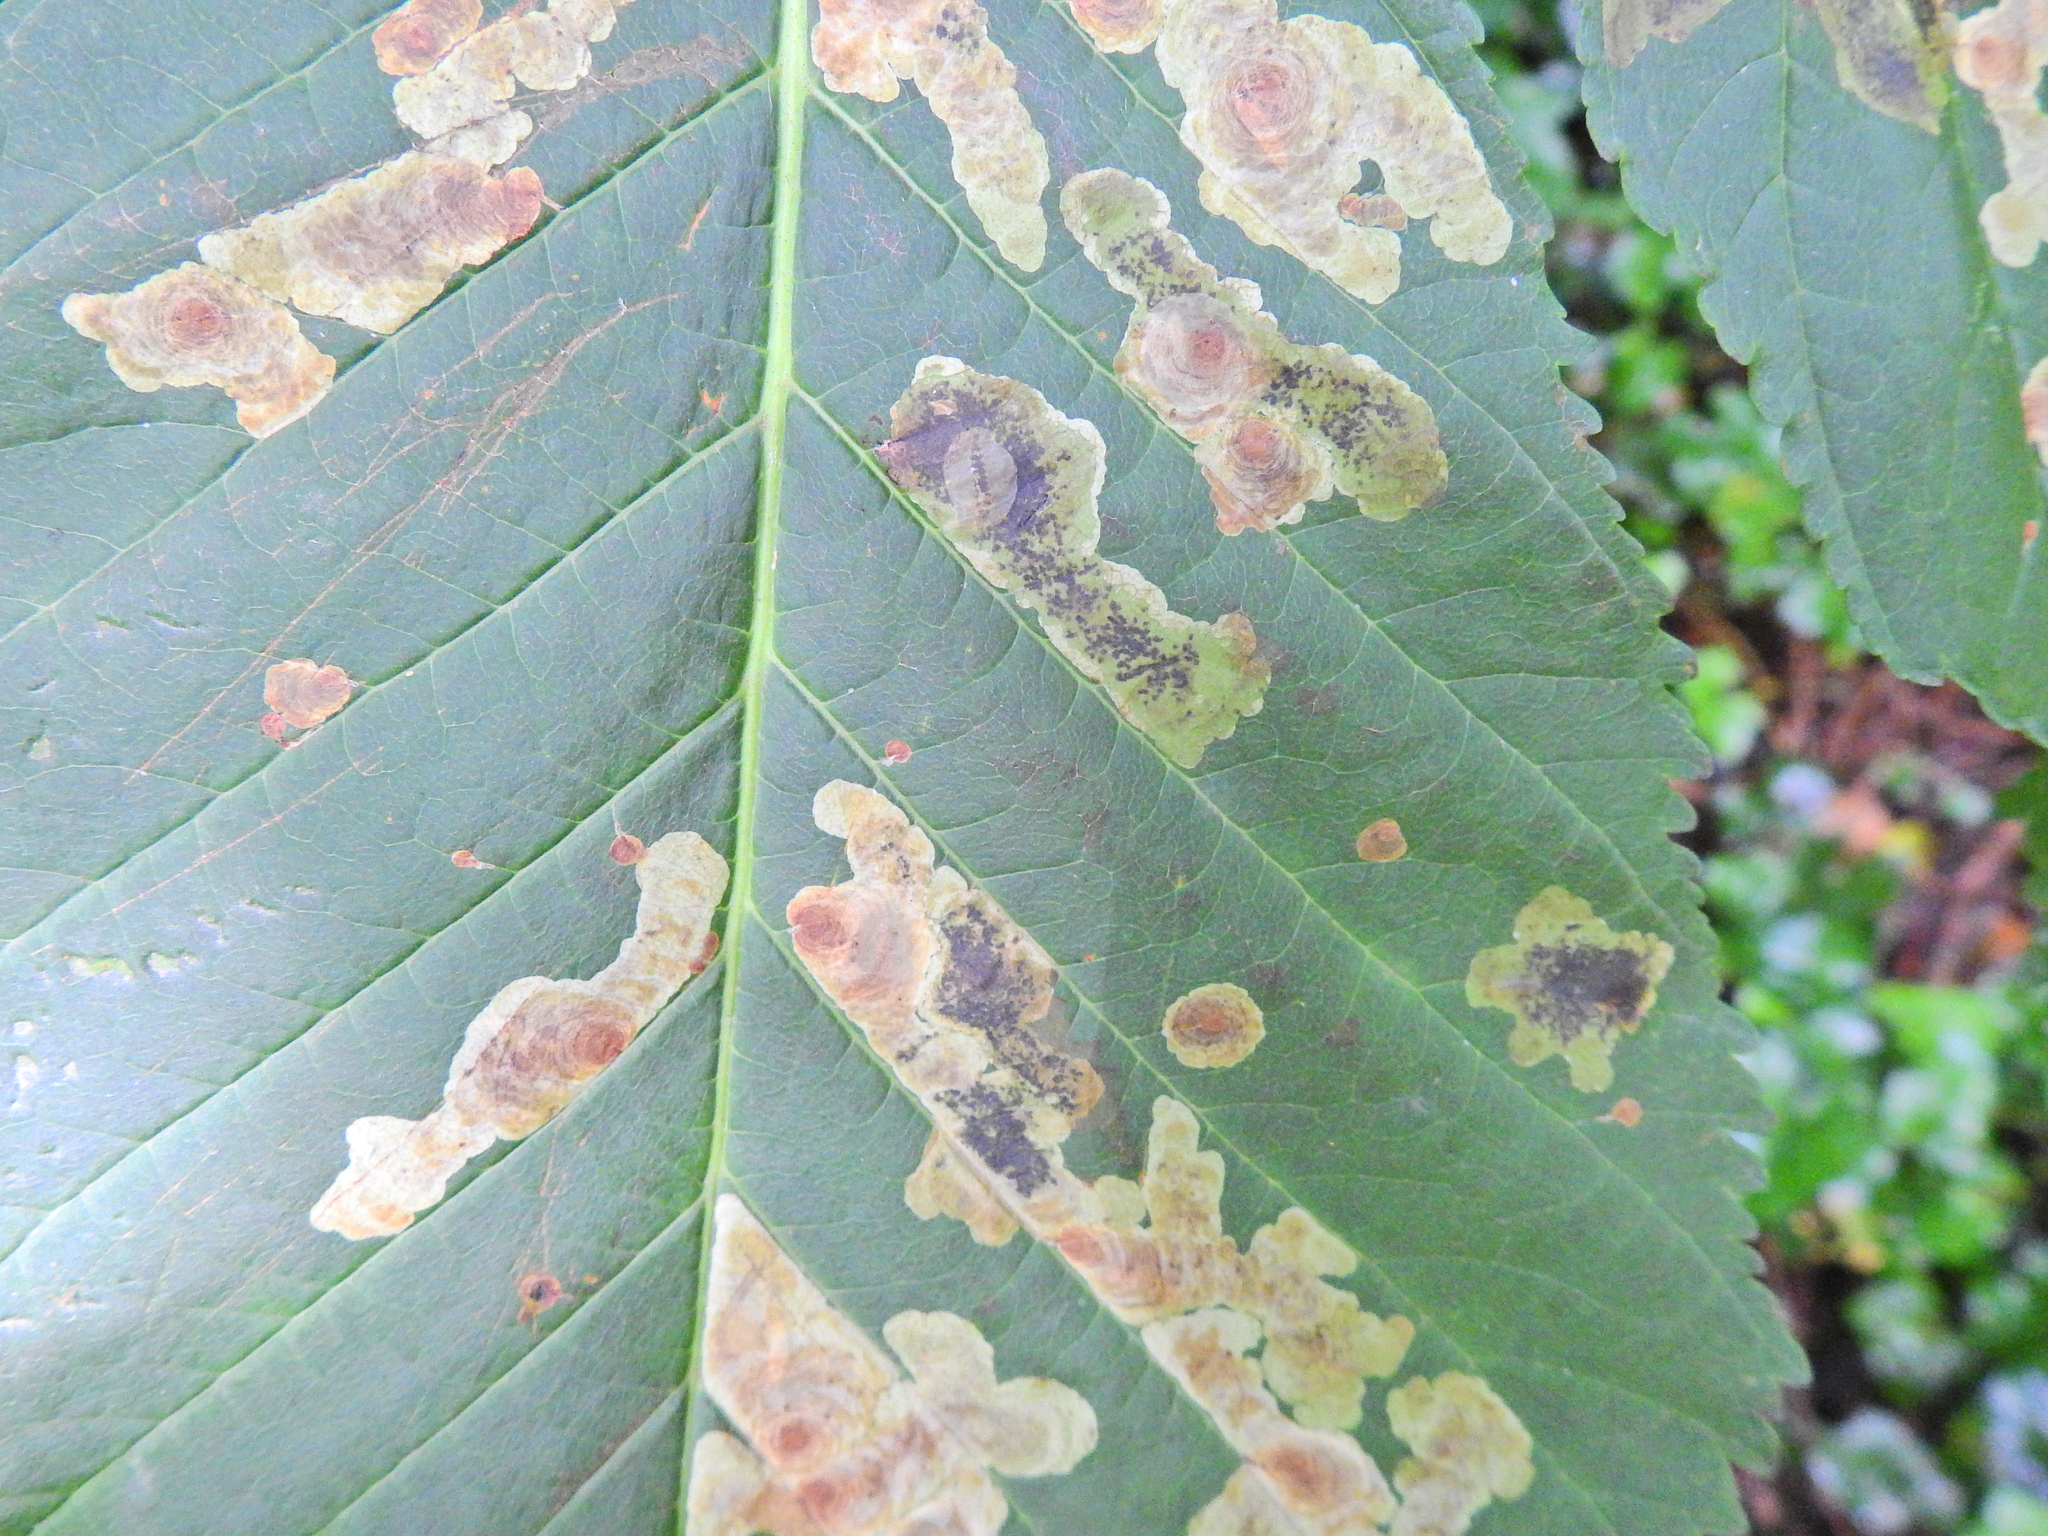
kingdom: Animalia
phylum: Arthropoda
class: Insecta
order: Lepidoptera
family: Gracillariidae
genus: Cameraria
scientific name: Cameraria ohridella
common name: Horse-chestnut leaf-miner
